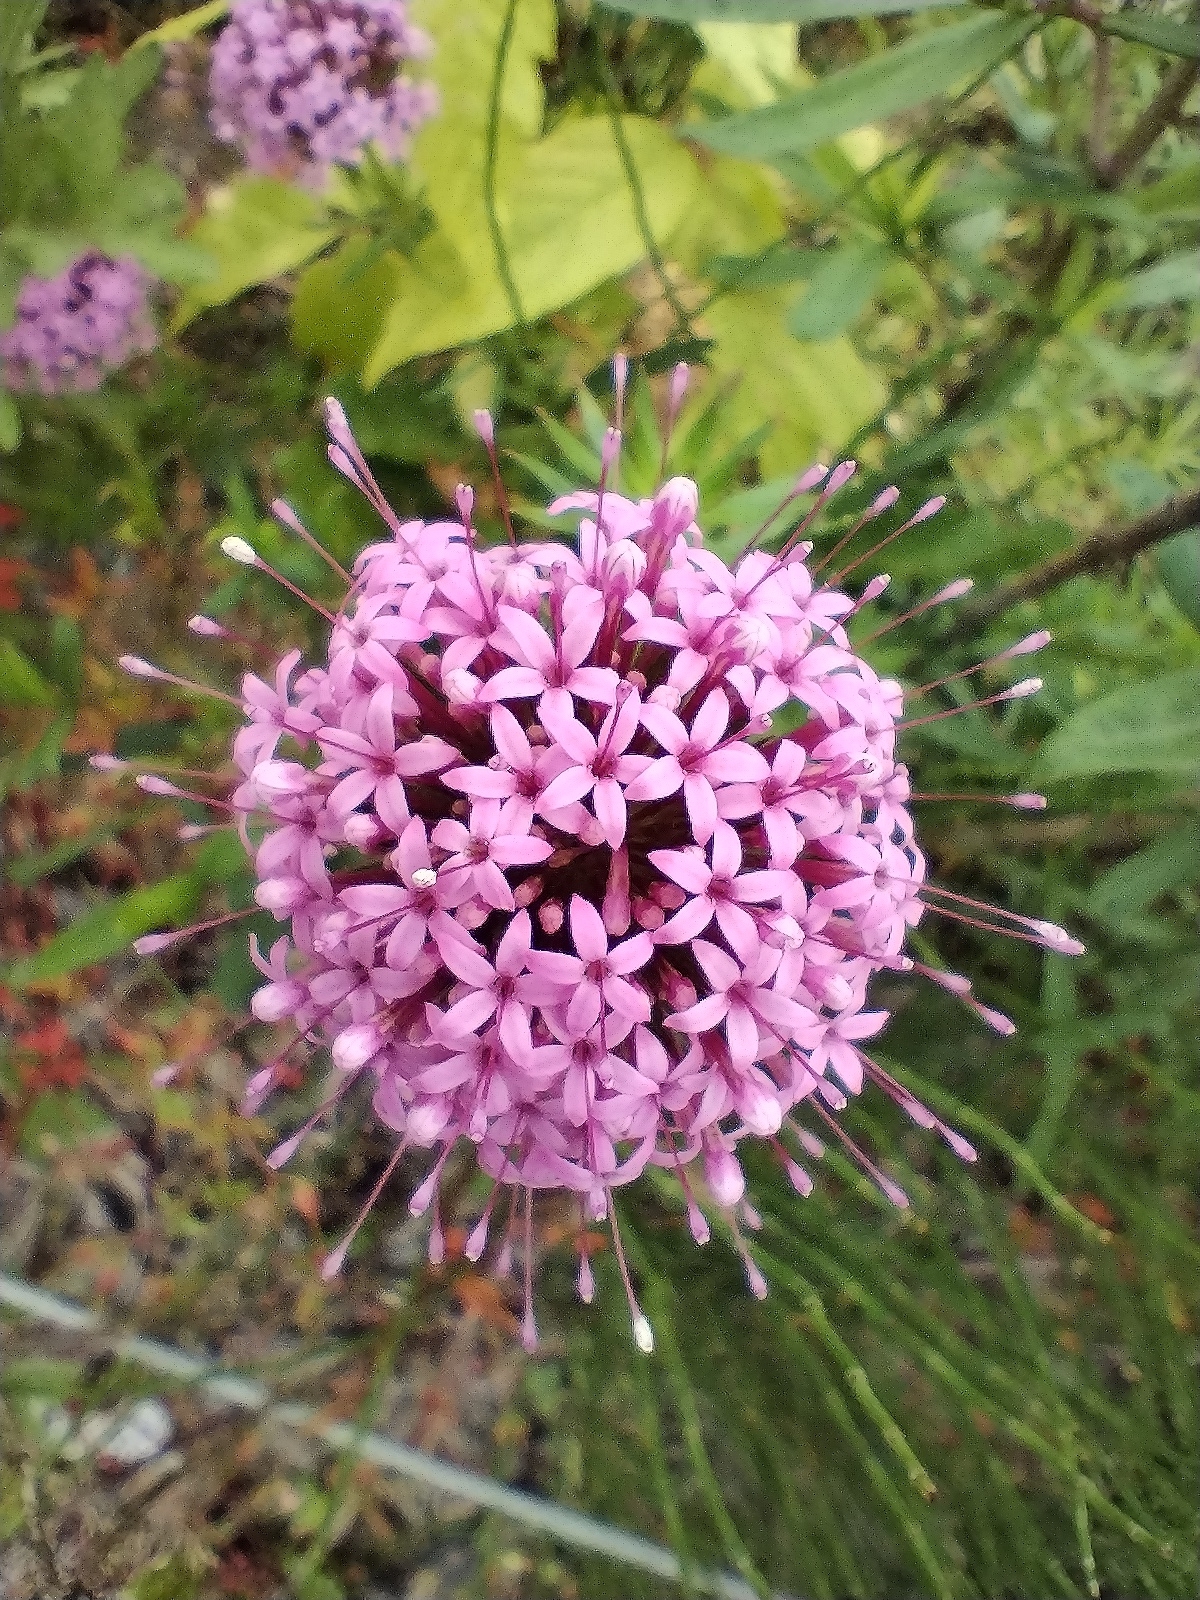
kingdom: Plantae
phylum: Tracheophyta
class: Magnoliopsida
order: Gentianales
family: Rubiaceae
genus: Phuopsis
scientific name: Phuopsis stylosa
